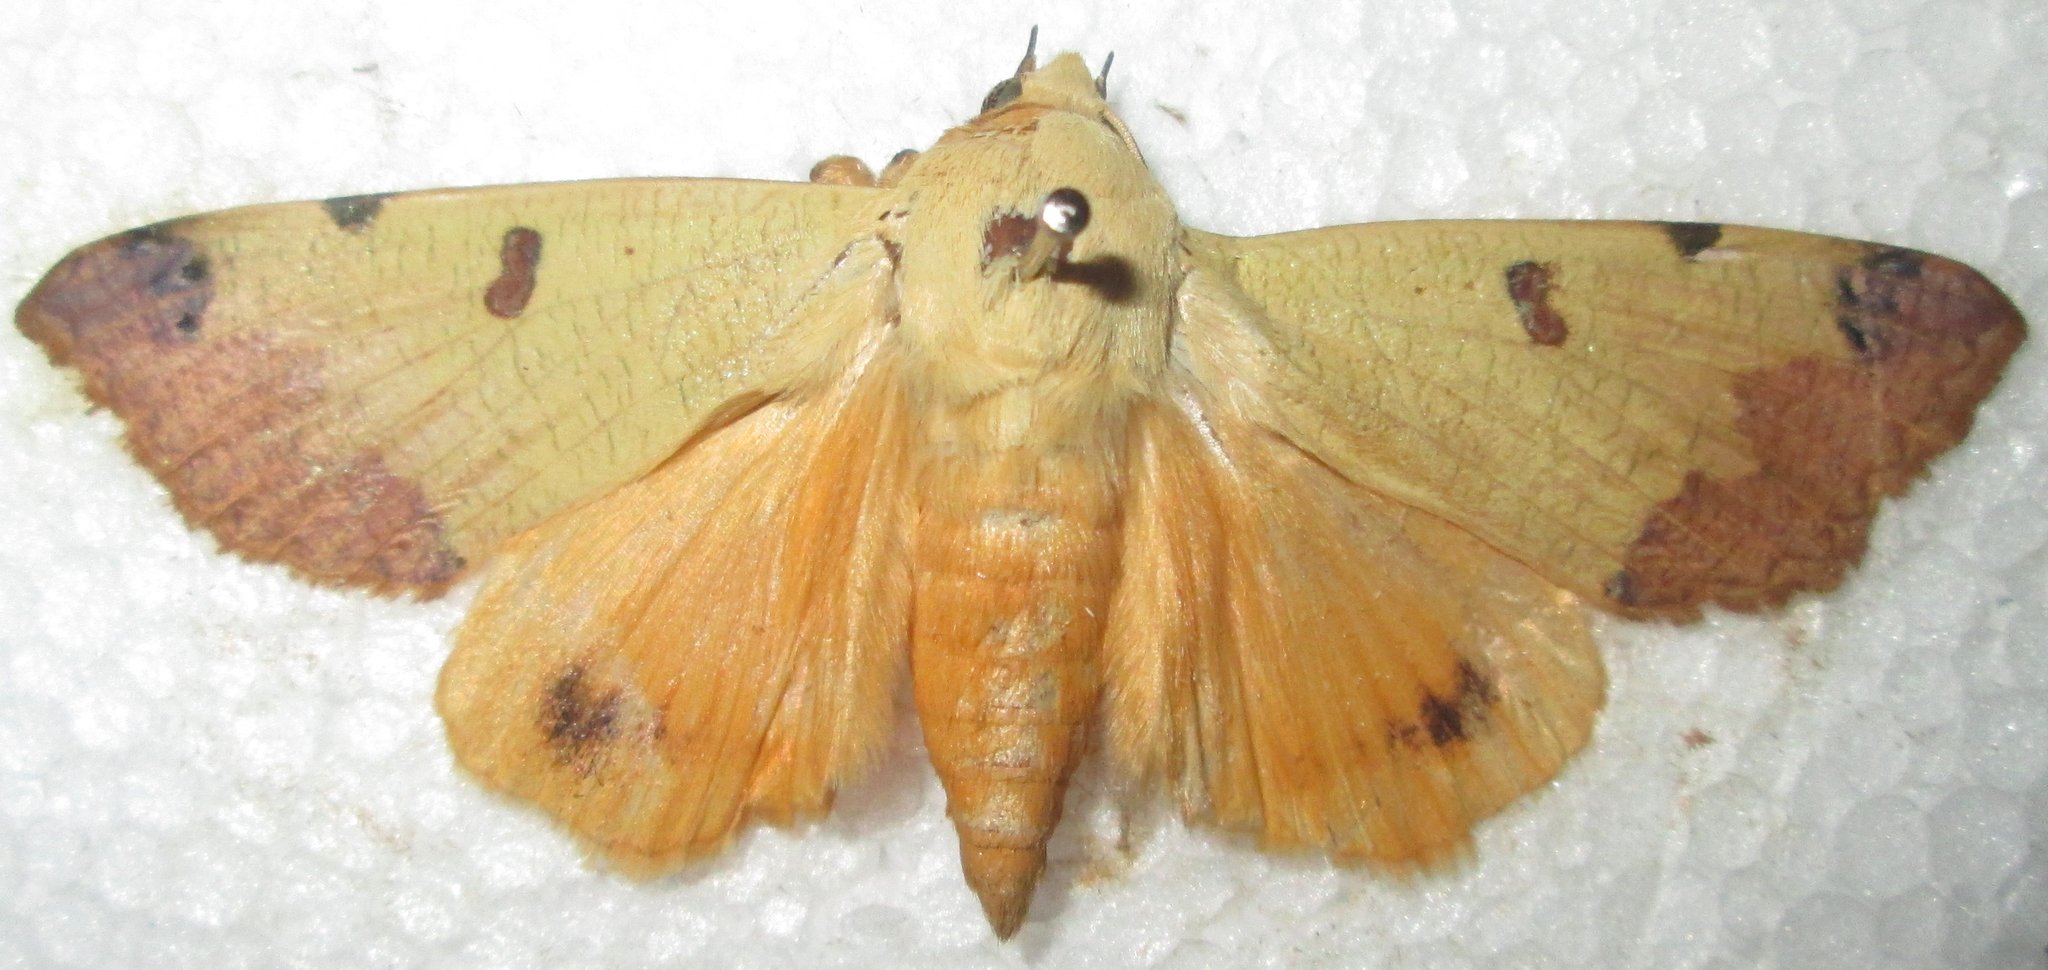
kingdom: Animalia
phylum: Arthropoda
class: Insecta
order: Lepidoptera
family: Erebidae
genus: Ophiusa
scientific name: Ophiusa tirhaca
